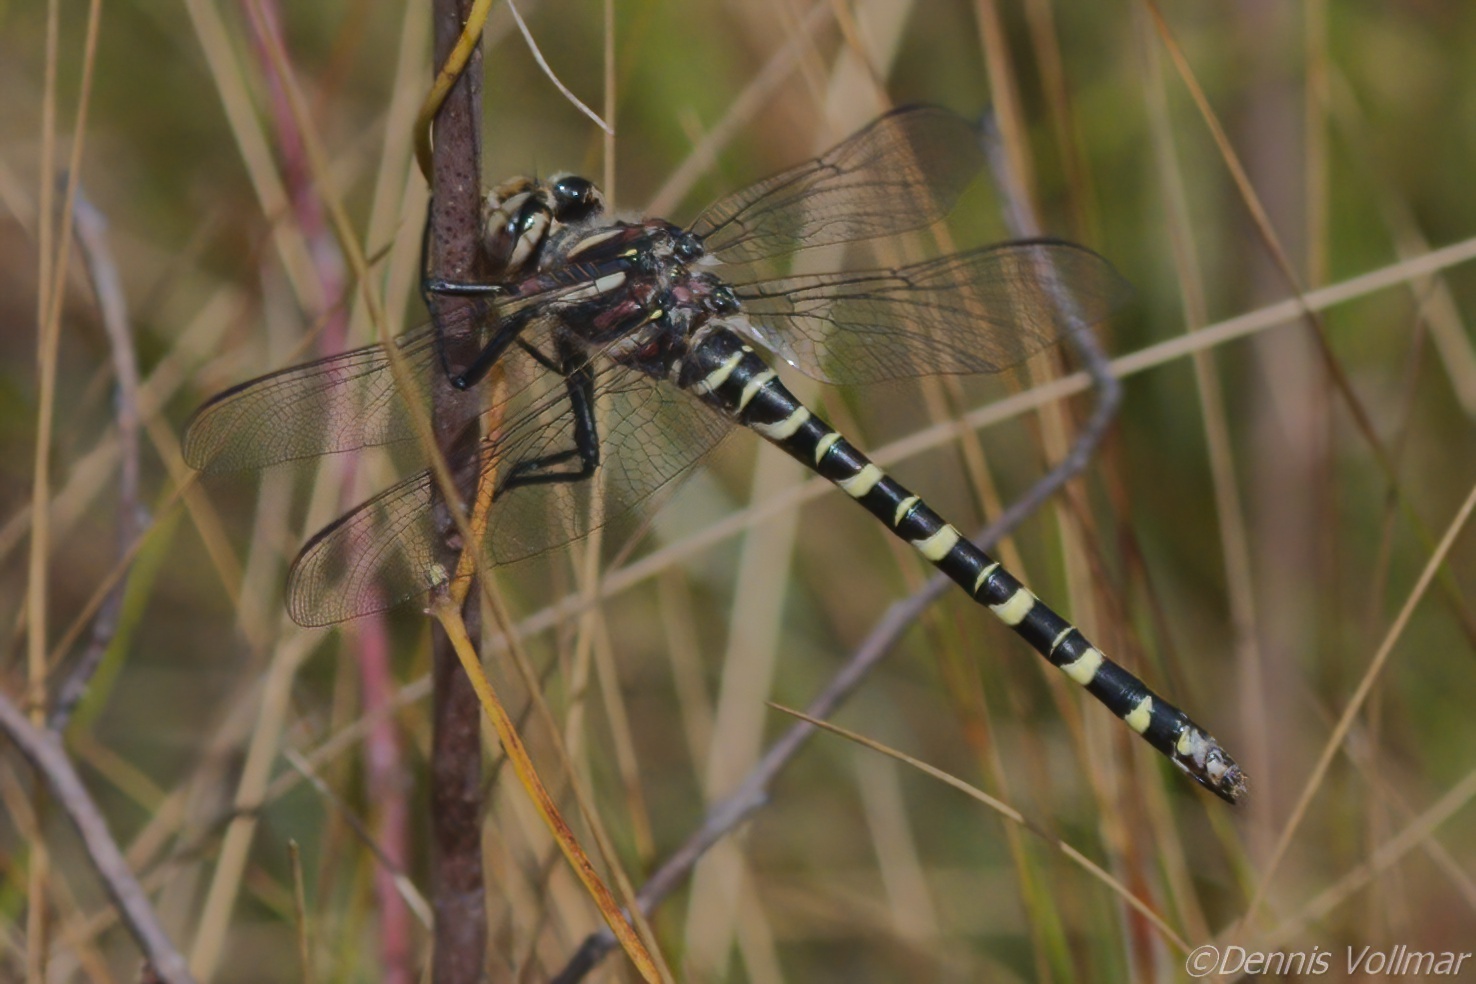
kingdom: Animalia
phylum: Arthropoda
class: Insecta
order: Odonata
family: Cordulegastridae
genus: Cordulegaster
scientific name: Cordulegaster sayi
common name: Say's spiketail
